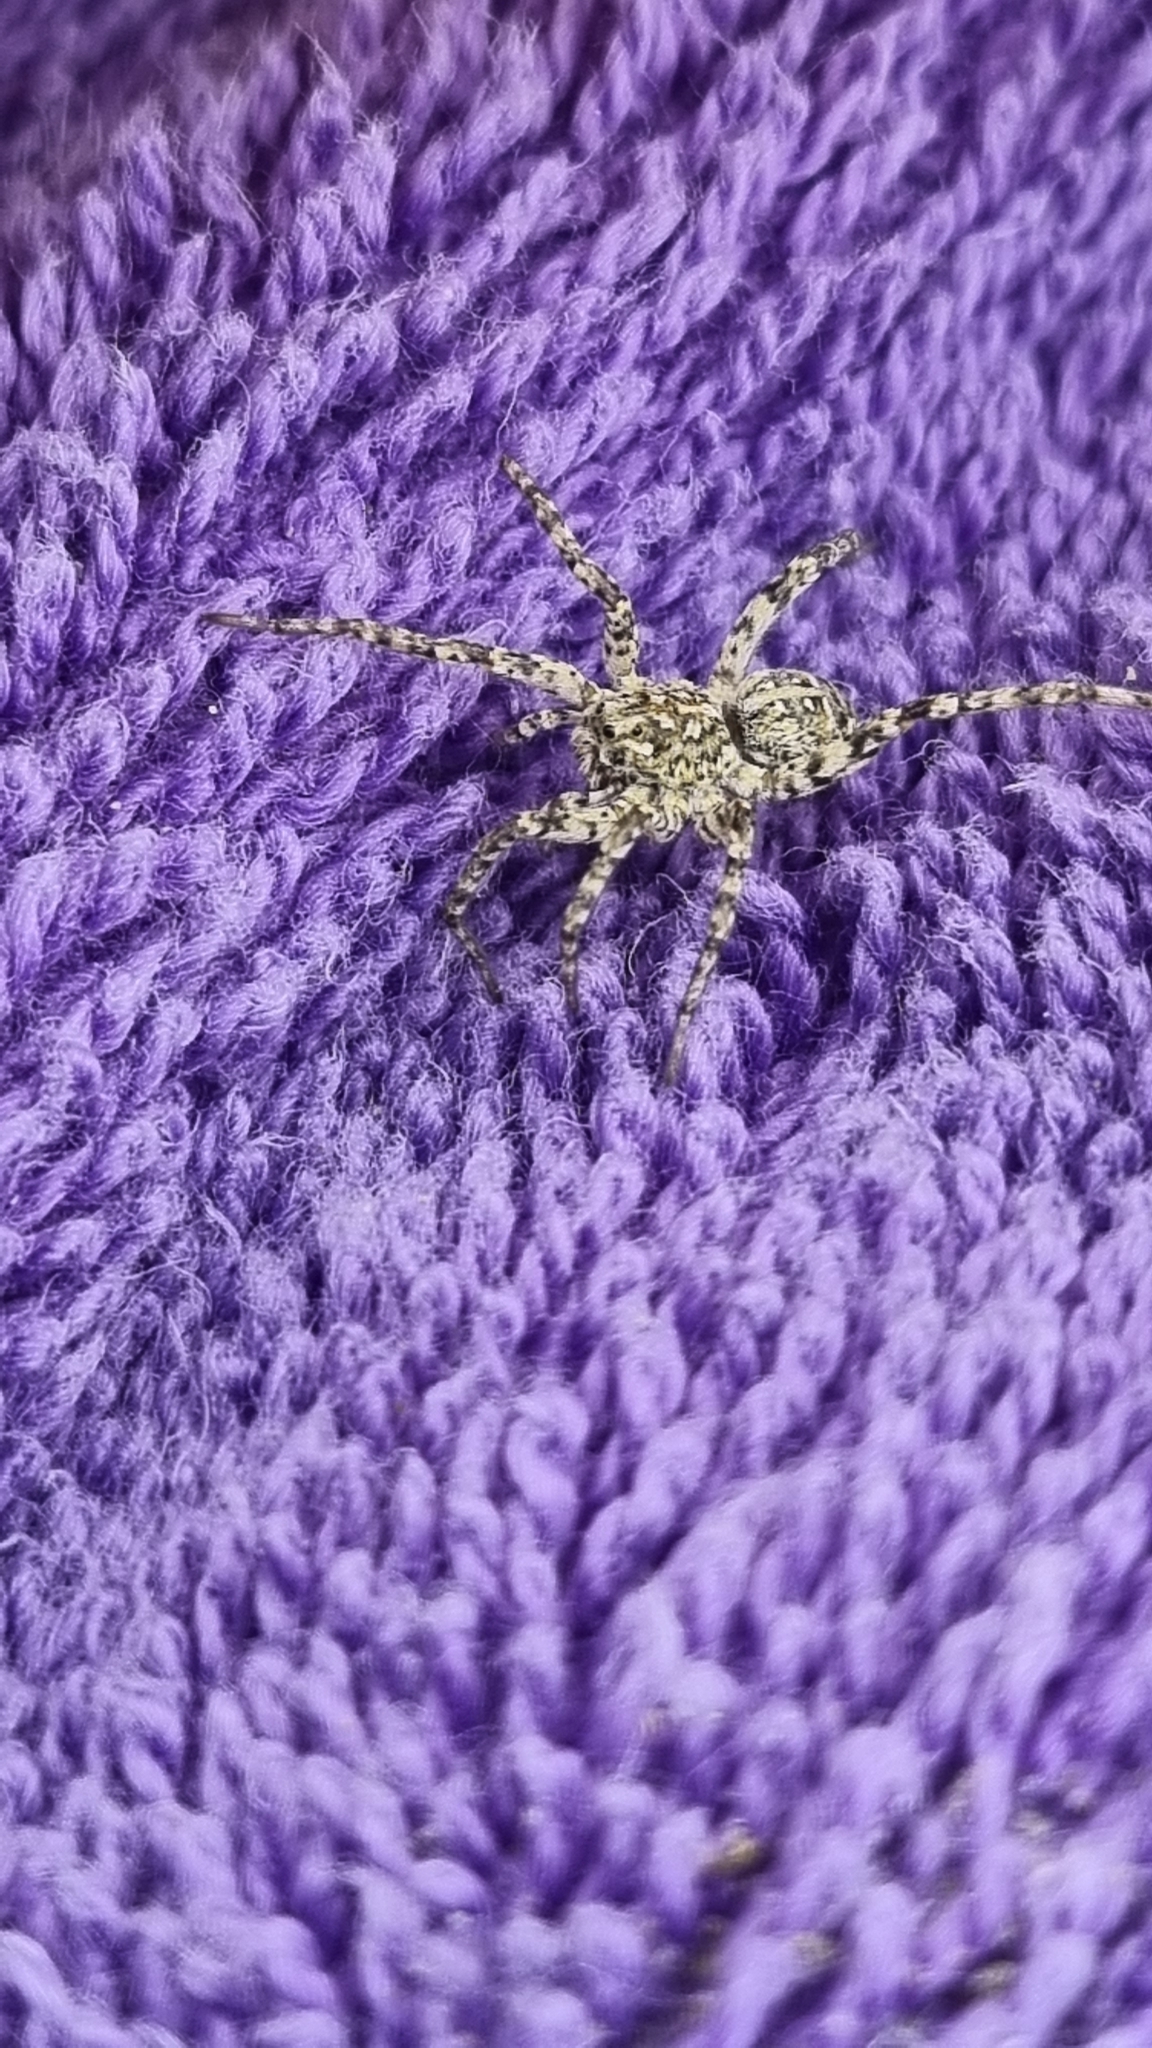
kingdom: Animalia
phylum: Arthropoda
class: Arachnida
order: Araneae
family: Lycosidae
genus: Anoteropsis
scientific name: Anoteropsis litoralis
